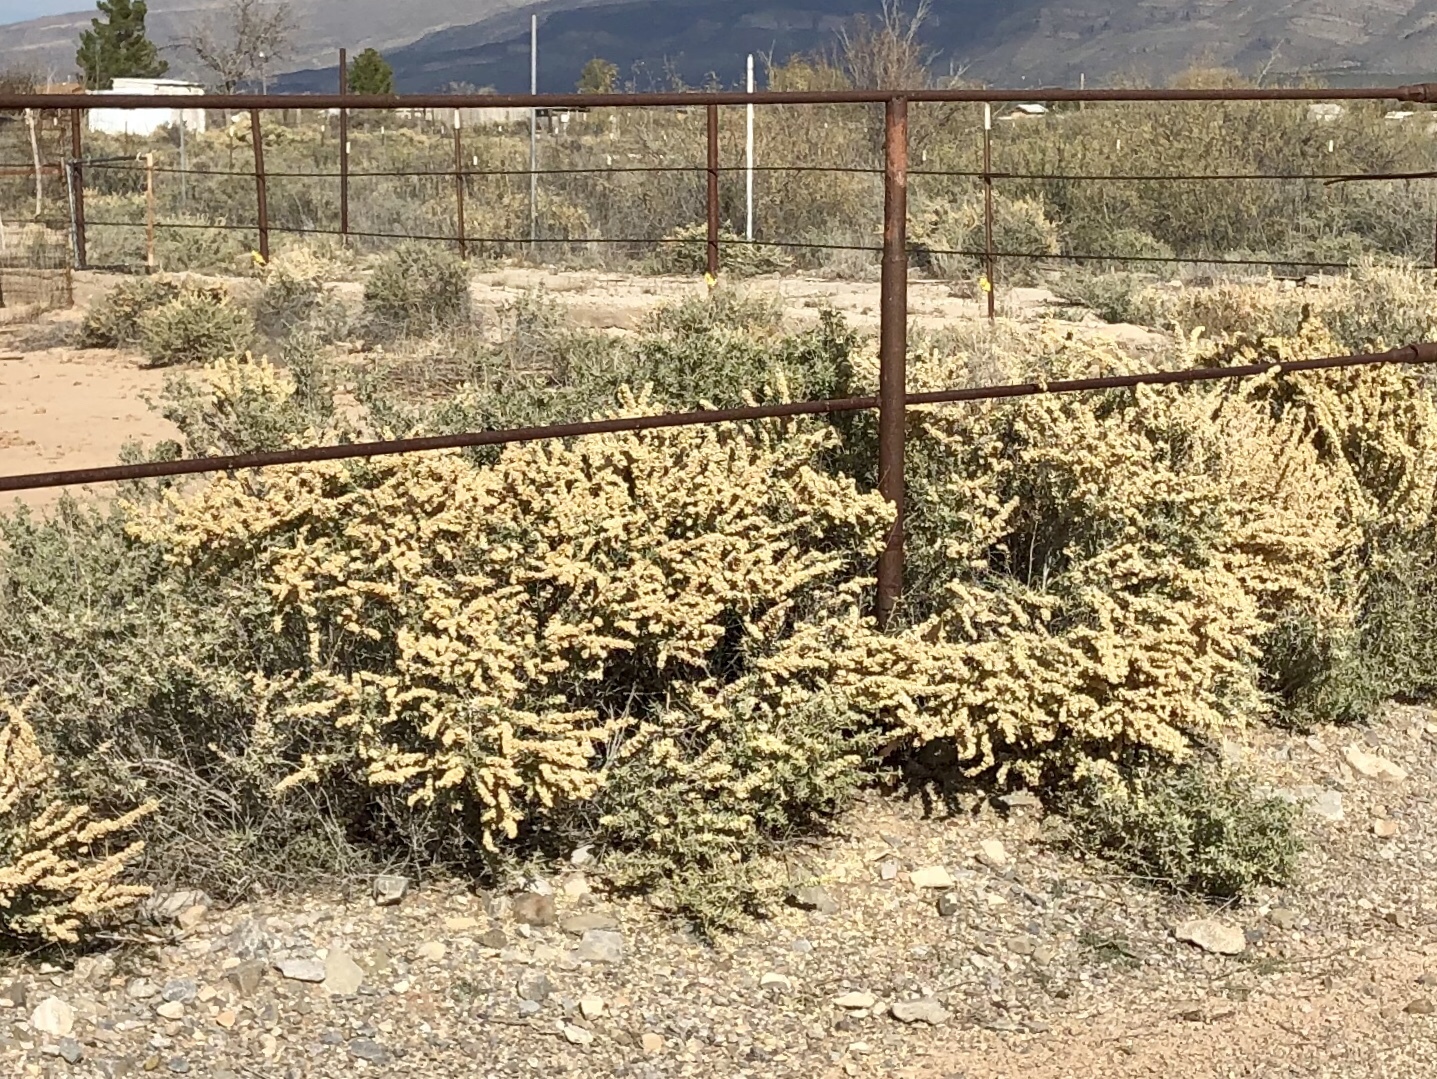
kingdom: Plantae
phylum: Tracheophyta
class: Magnoliopsida
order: Caryophyllales
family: Amaranthaceae
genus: Atriplex
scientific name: Atriplex canescens
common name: Four-wing saltbush
